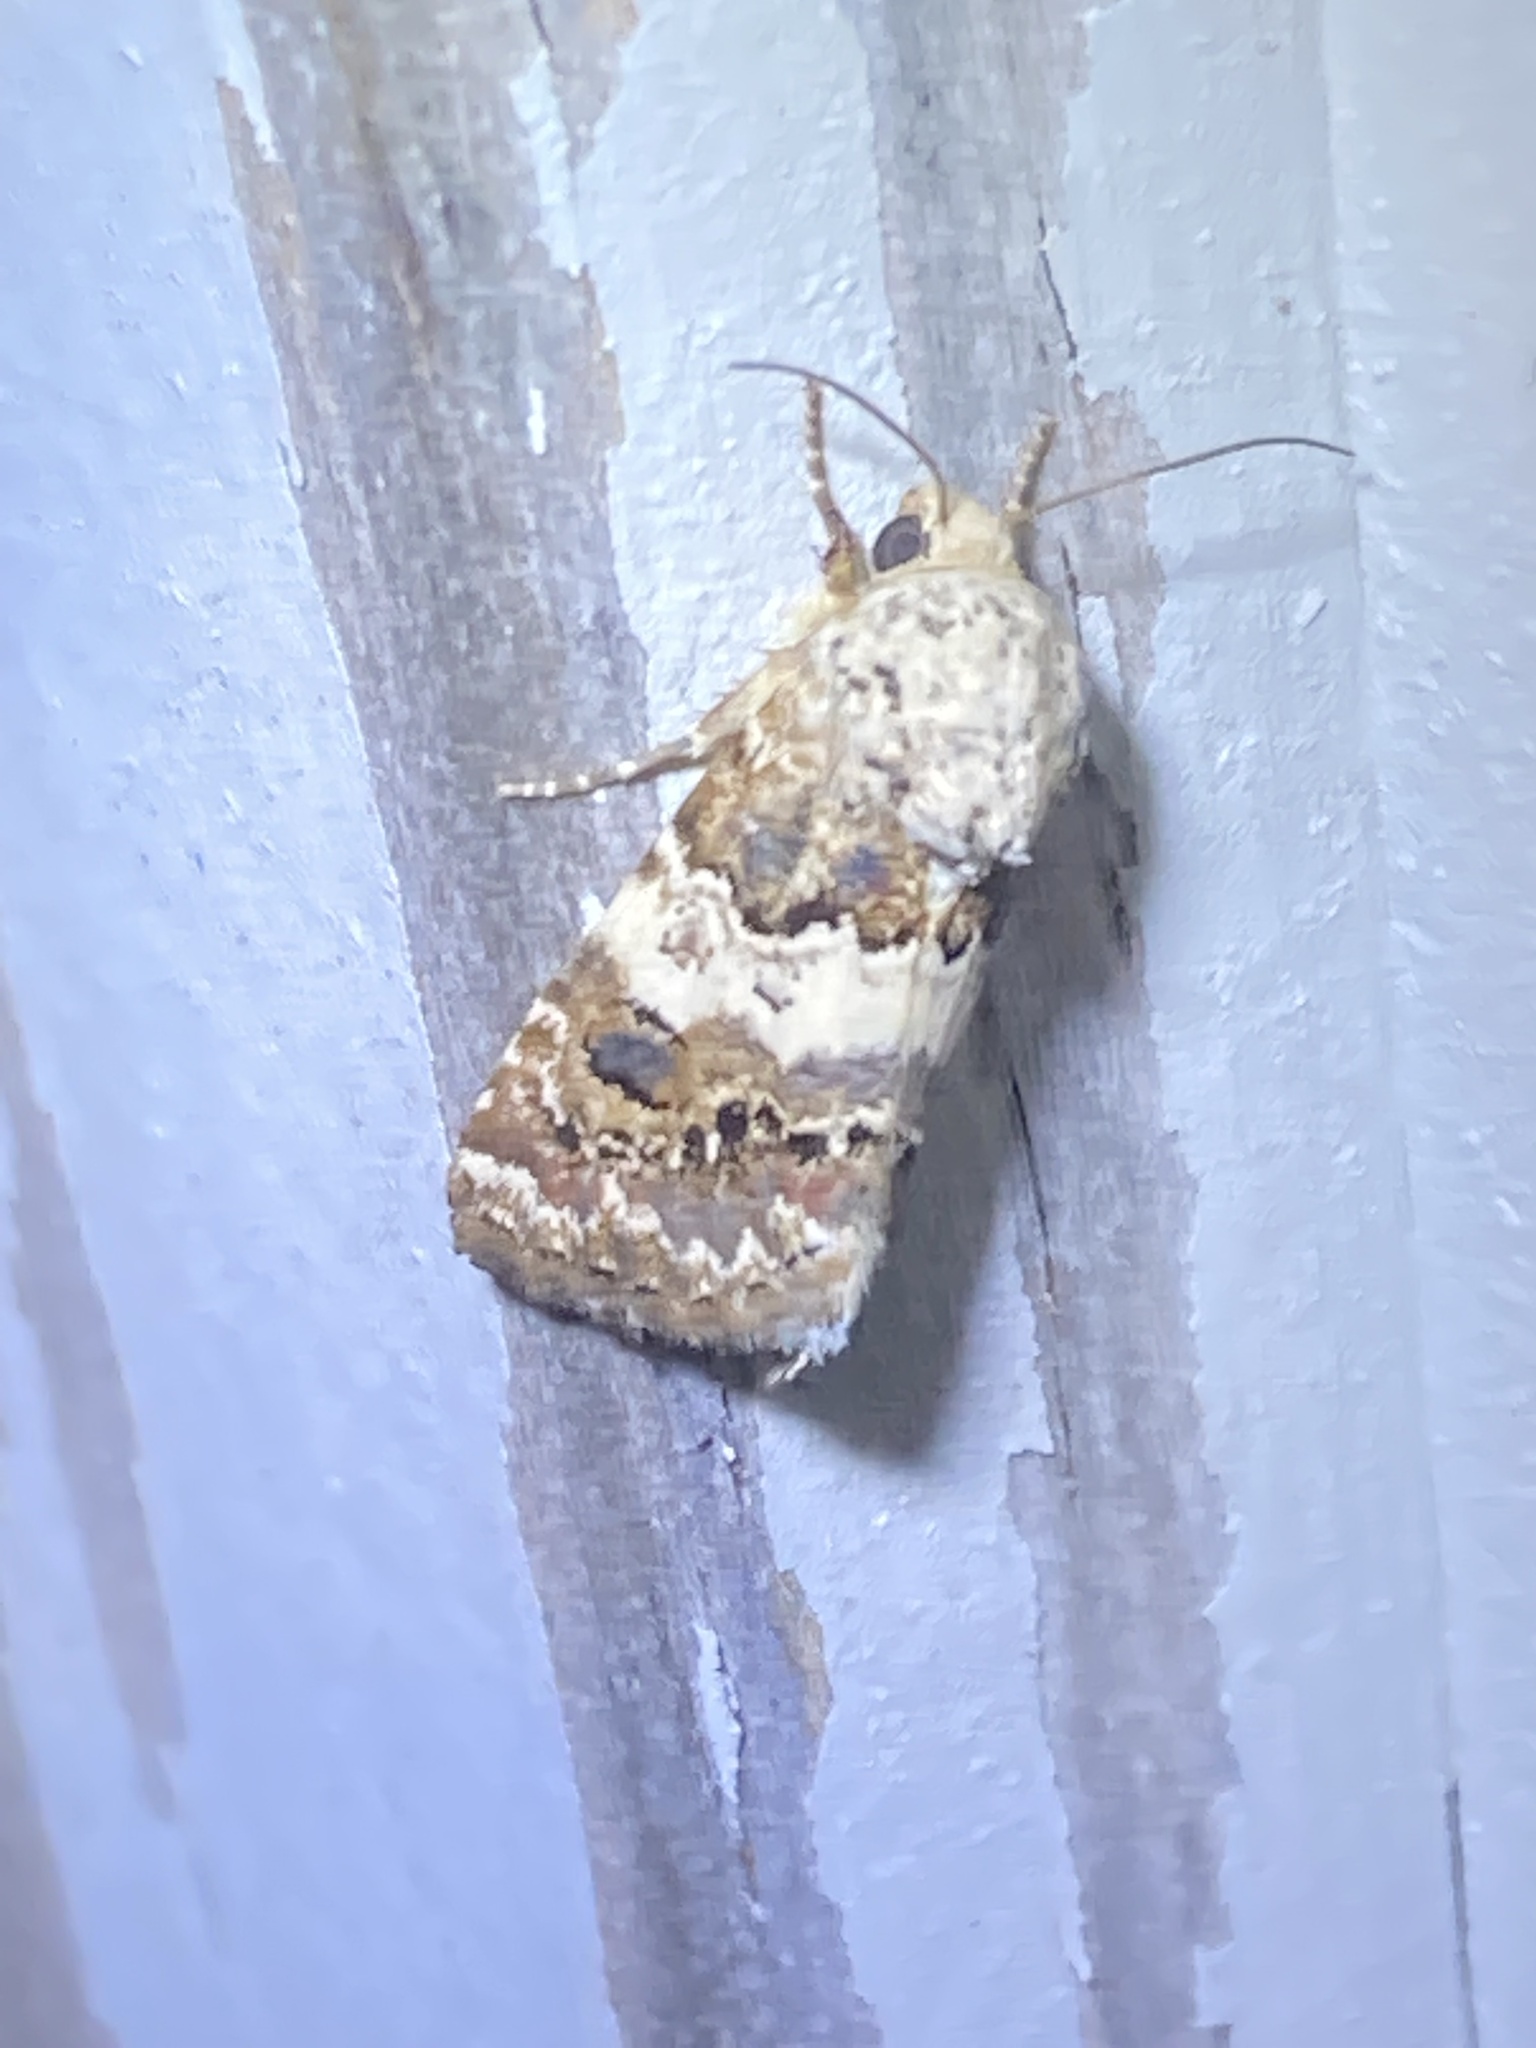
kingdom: Animalia
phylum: Arthropoda
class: Insecta
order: Lepidoptera
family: Noctuidae
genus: Schinia
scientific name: Schinia tertia
